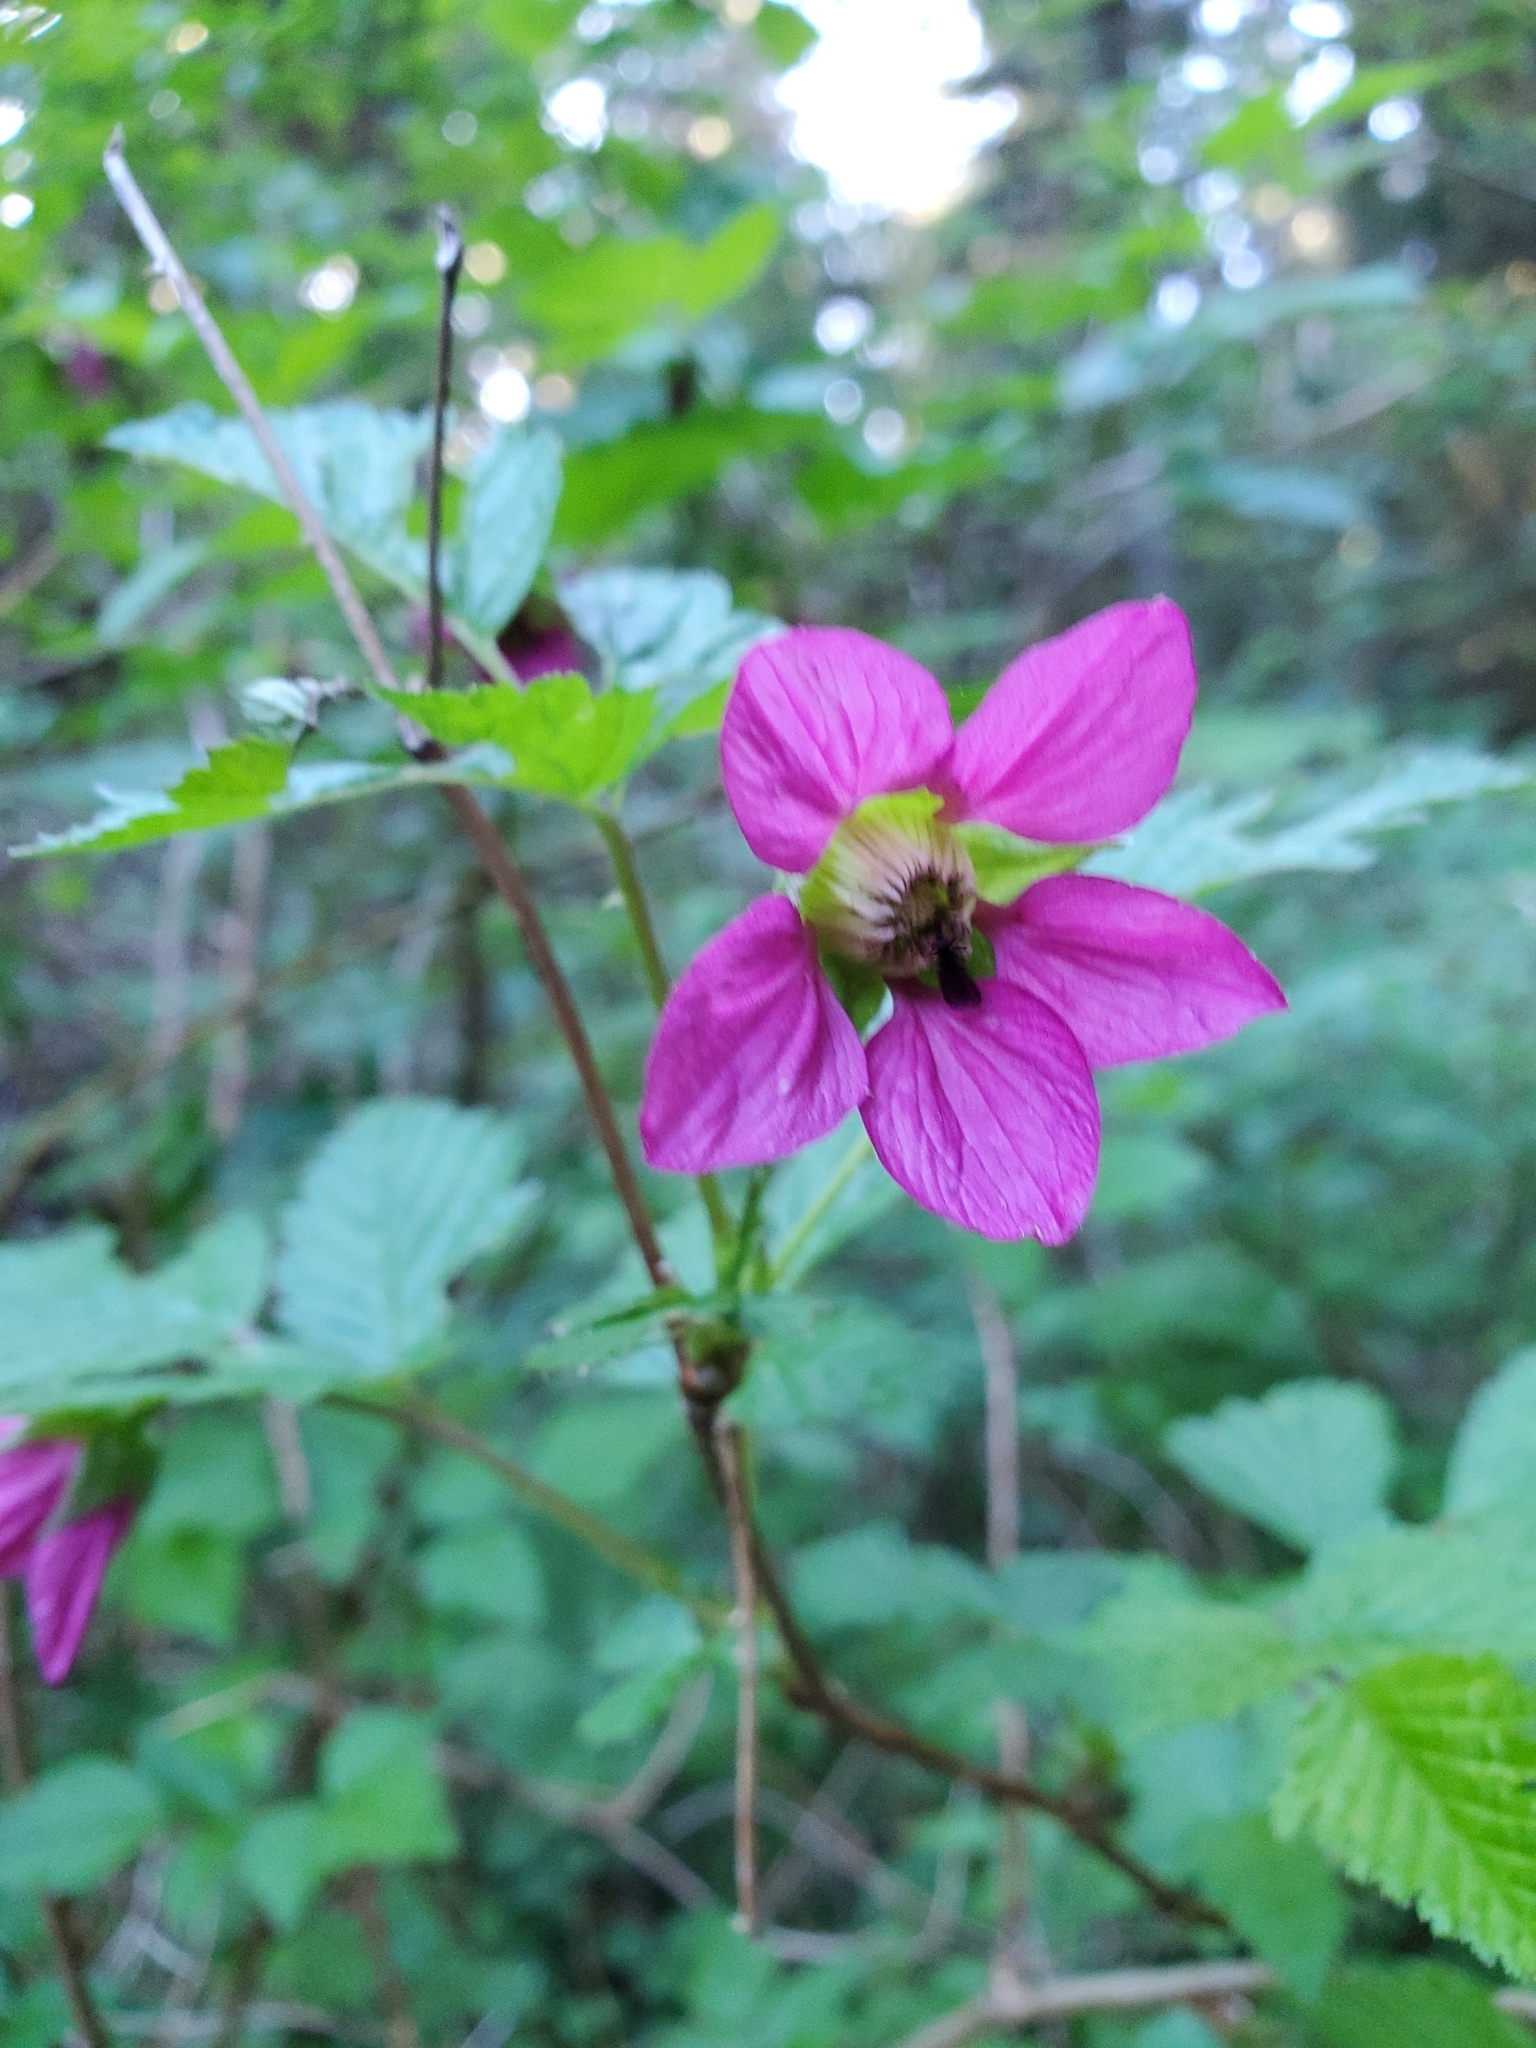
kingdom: Plantae
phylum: Tracheophyta
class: Magnoliopsida
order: Rosales
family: Rosaceae
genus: Rubus
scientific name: Rubus spectabilis
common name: Salmonberry
